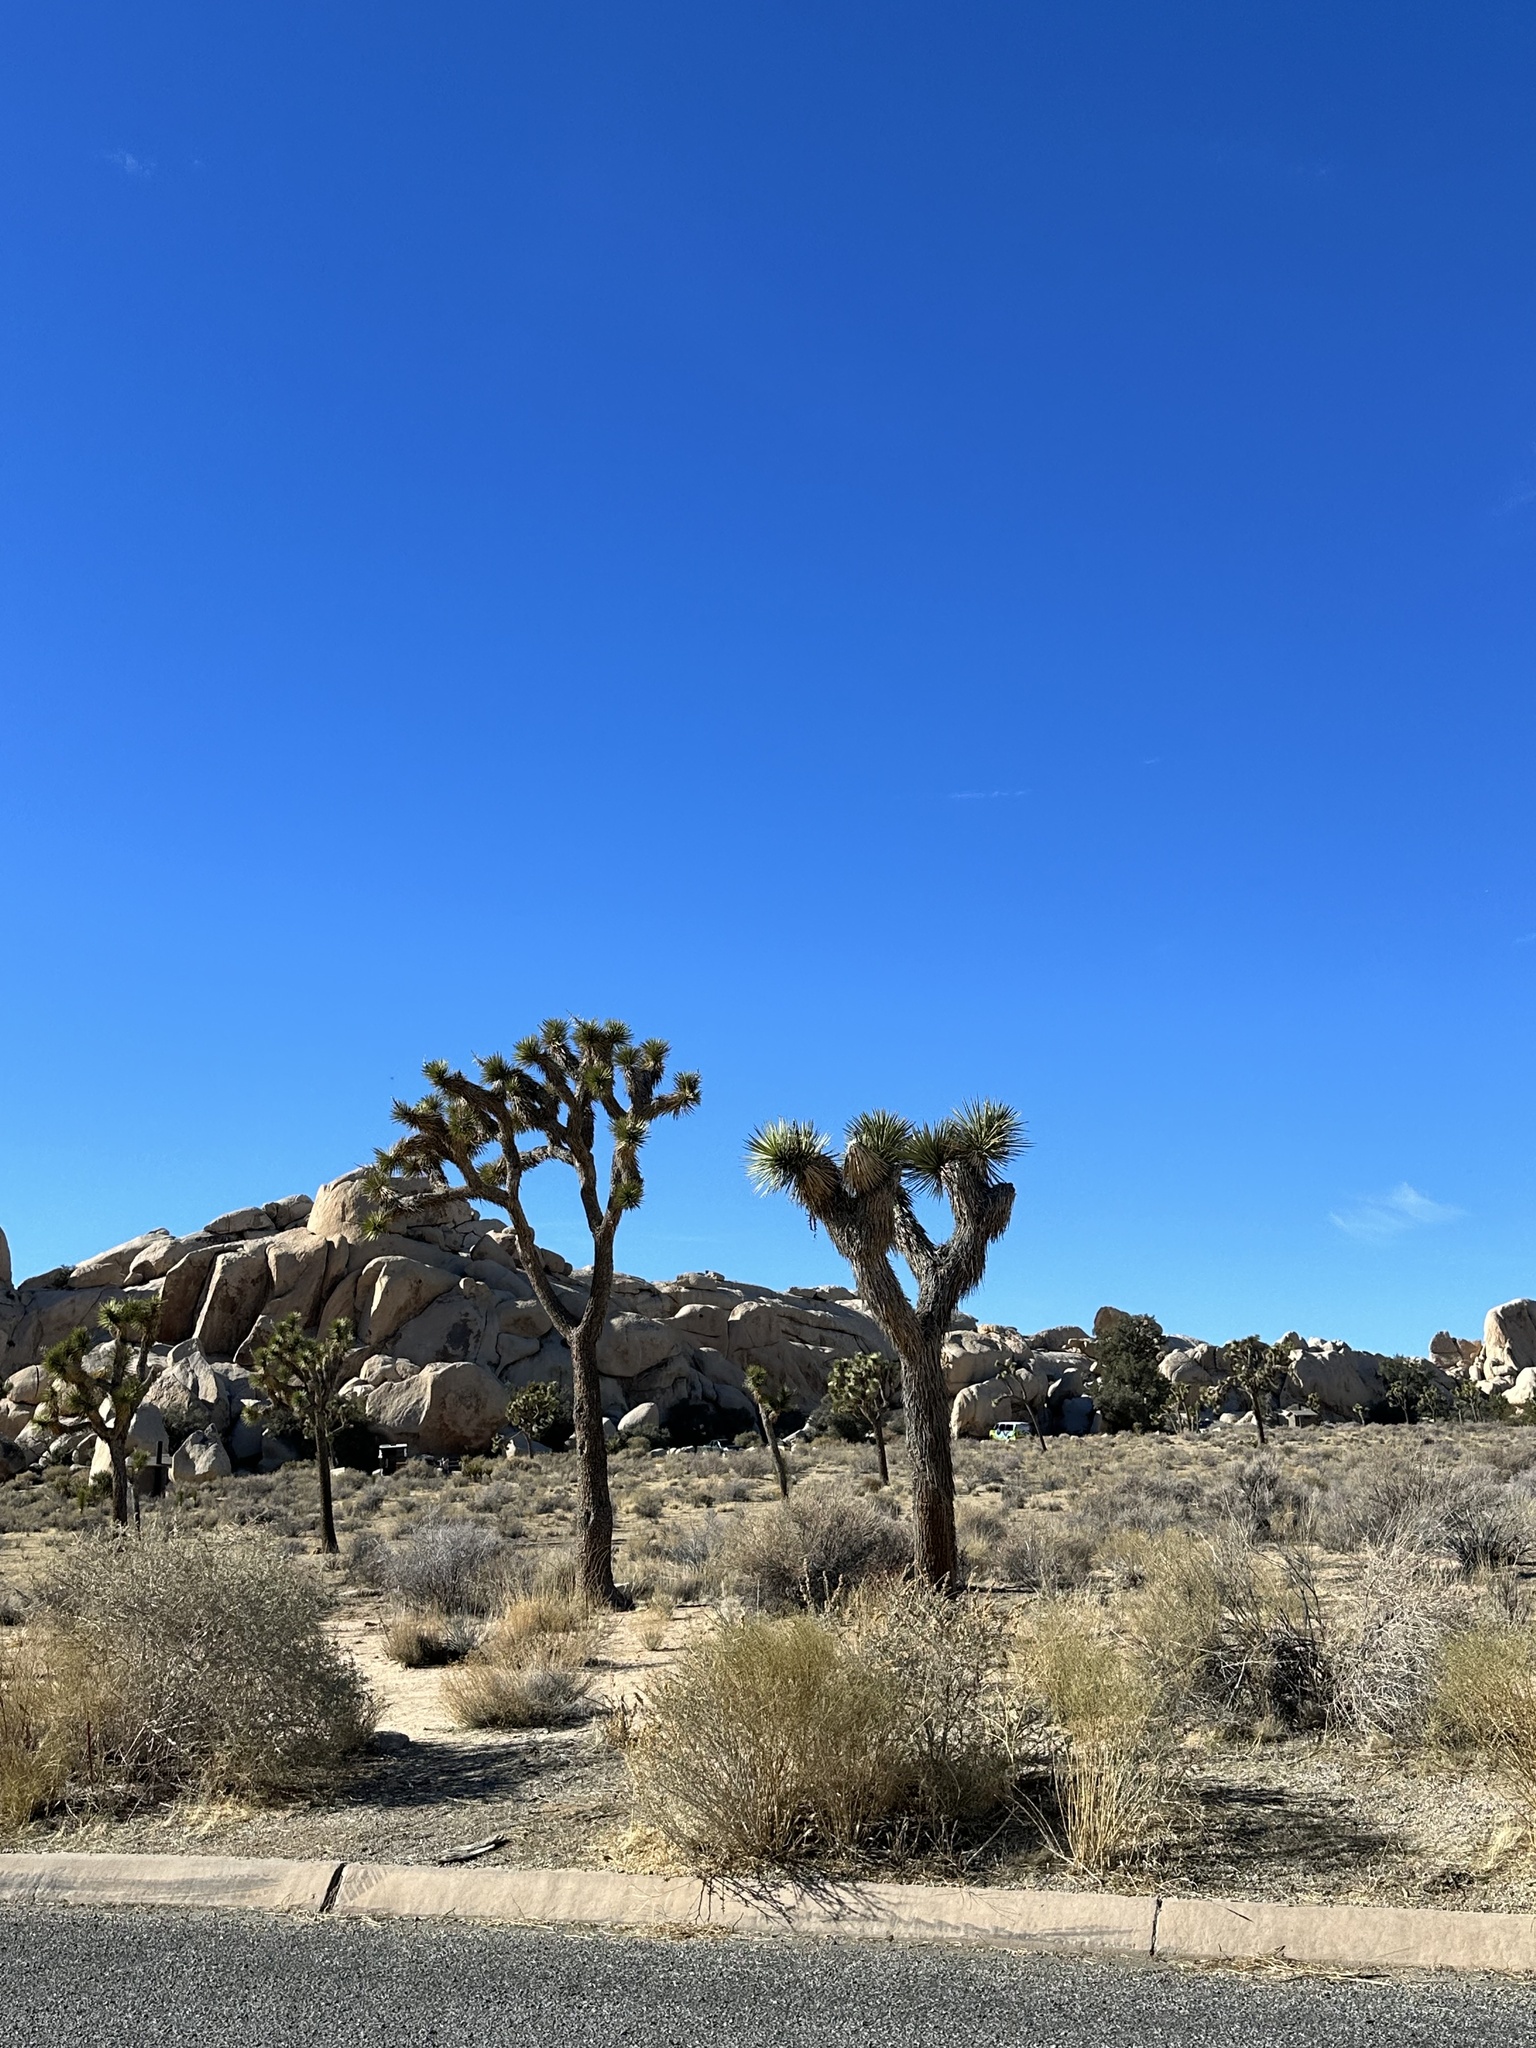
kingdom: Plantae
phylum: Tracheophyta
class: Liliopsida
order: Asparagales
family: Asparagaceae
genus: Yucca
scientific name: Yucca brevifolia
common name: Joshua tree
